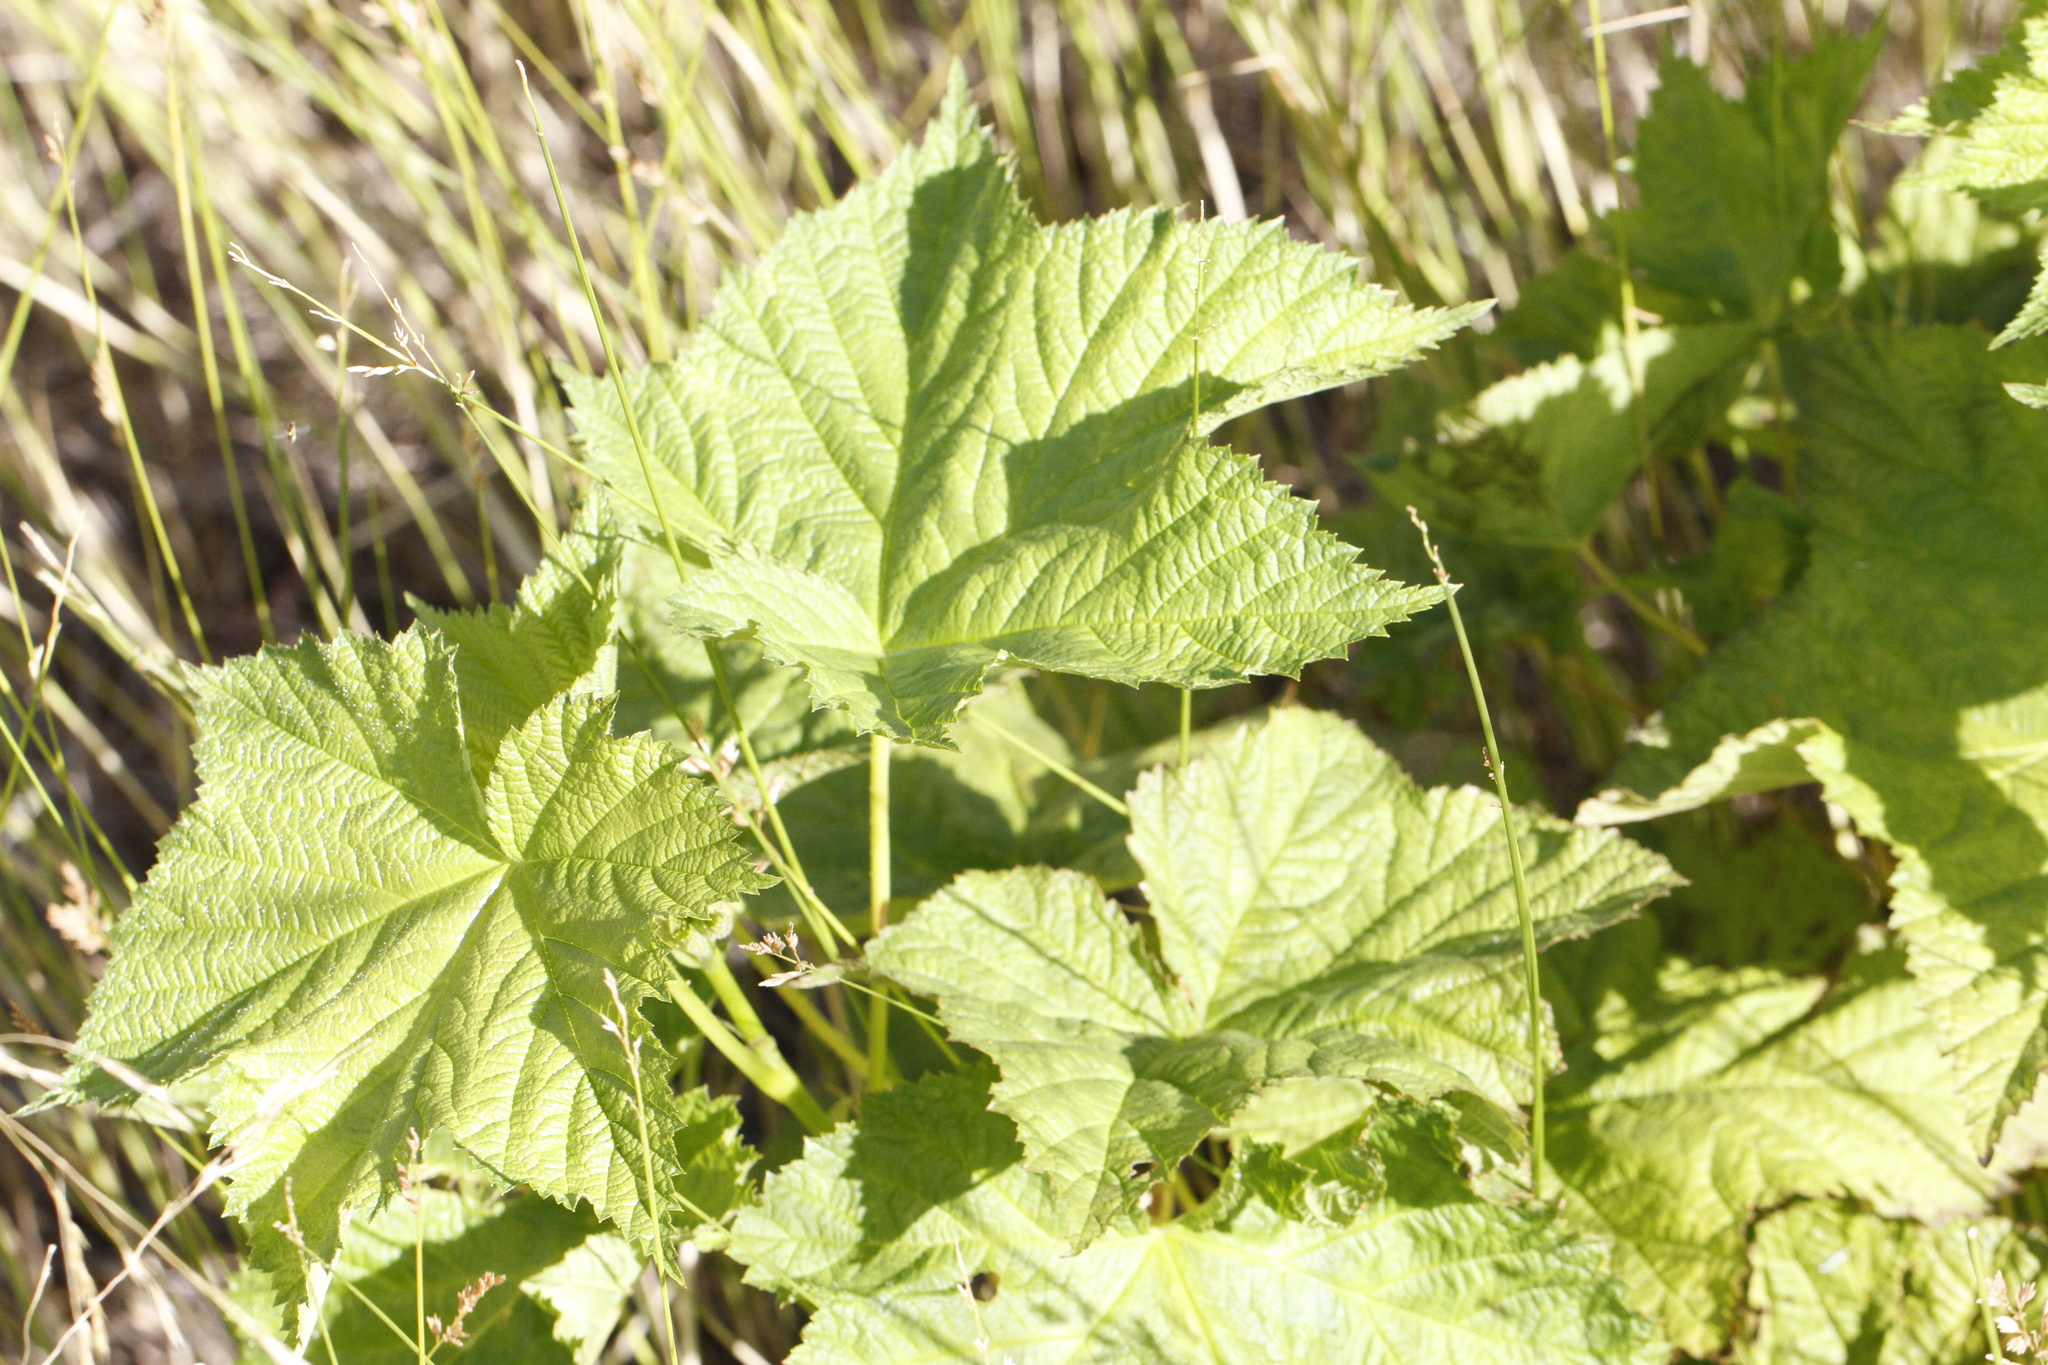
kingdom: Plantae
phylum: Tracheophyta
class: Magnoliopsida
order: Rosales
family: Rosaceae
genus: Rubus
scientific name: Rubus parviflorus
